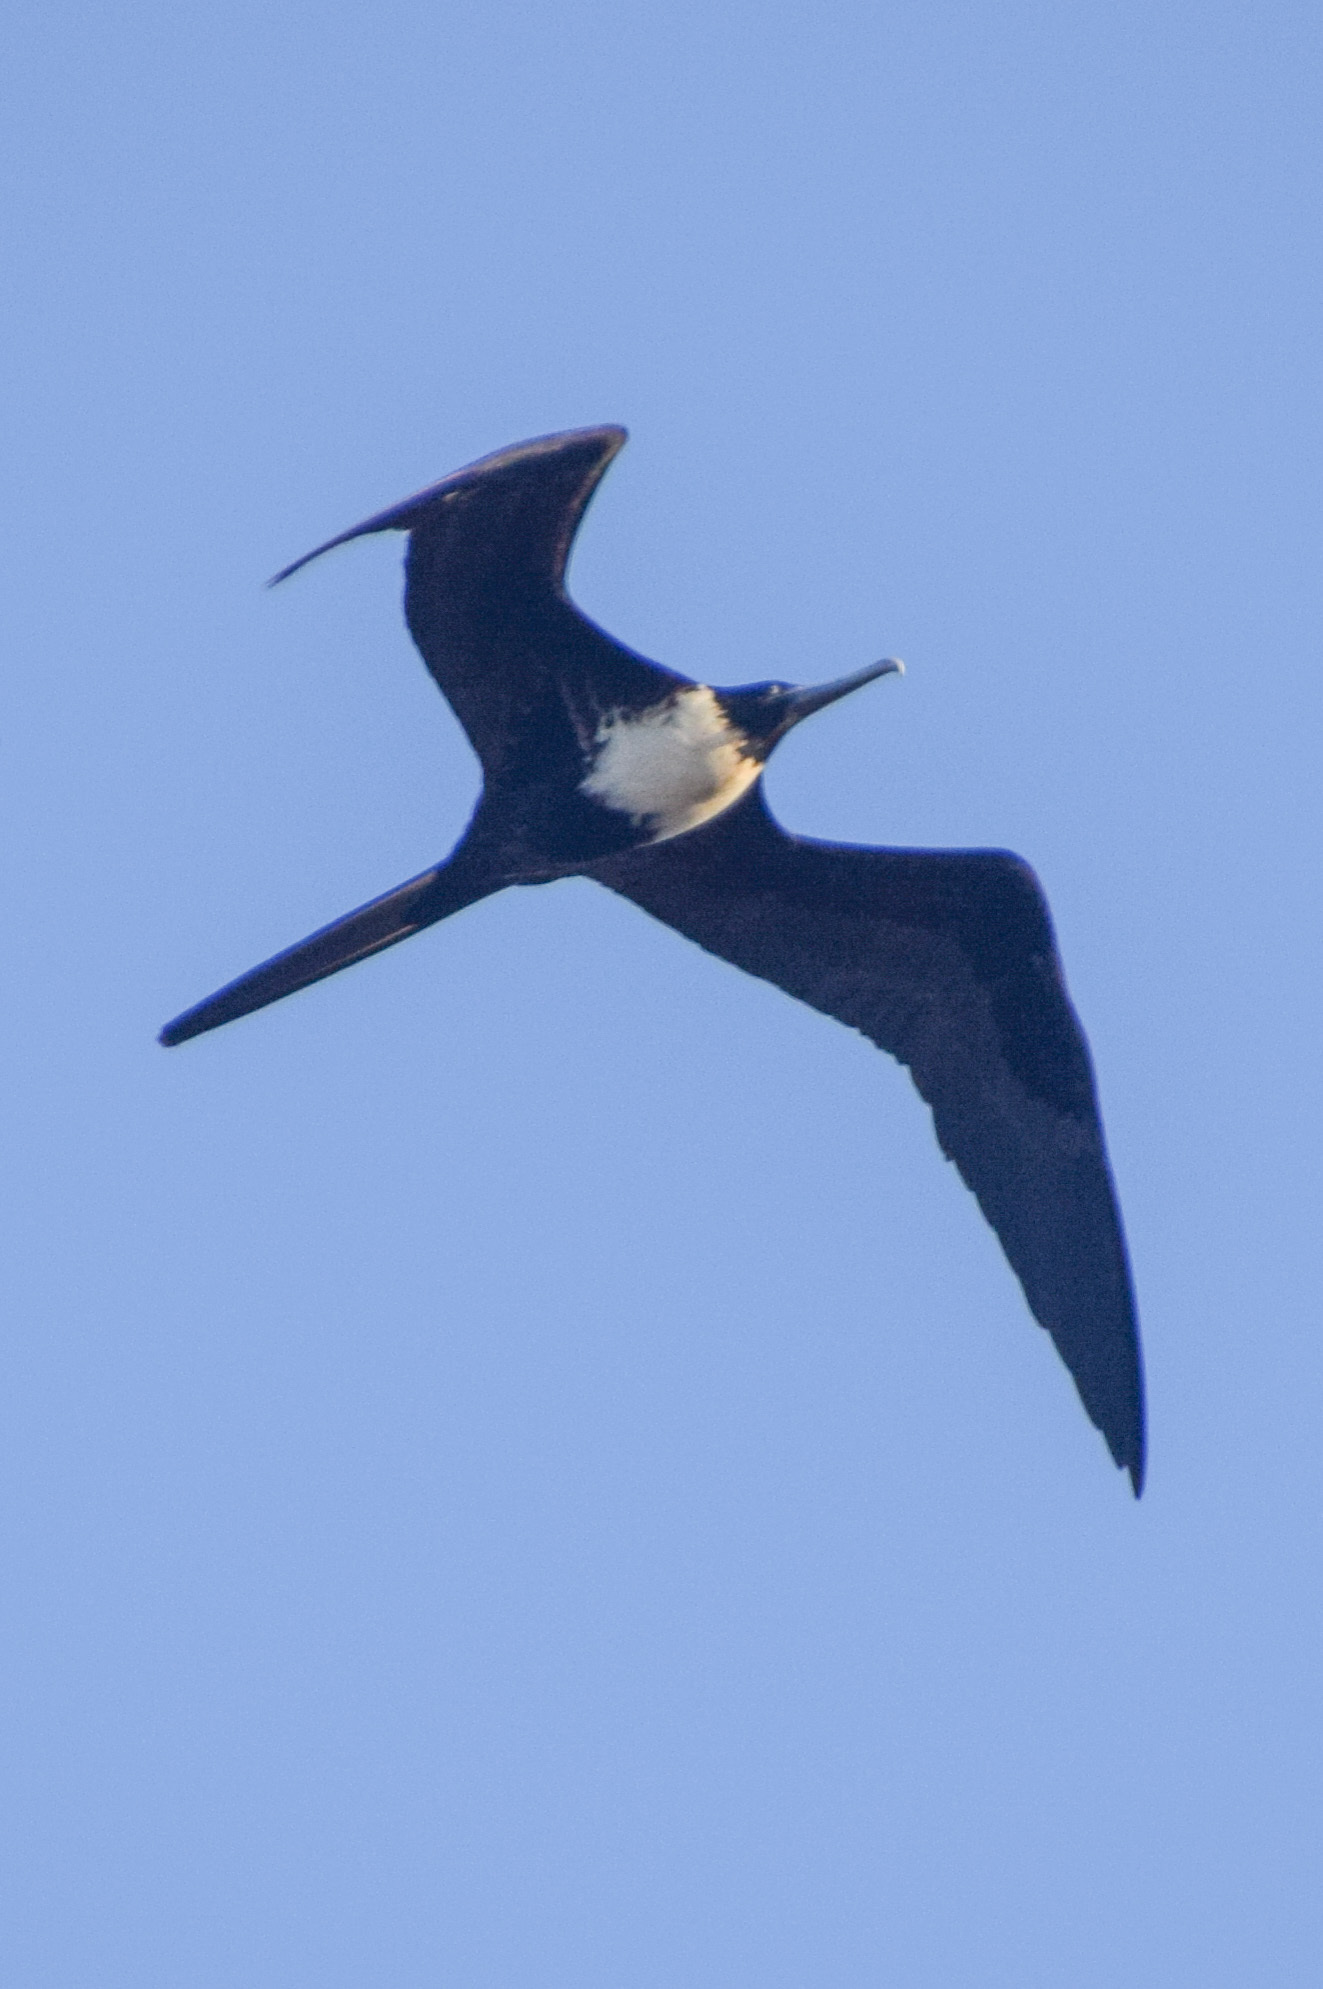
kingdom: Animalia
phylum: Chordata
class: Aves
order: Suliformes
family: Fregatidae
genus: Fregata
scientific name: Fregata magnificens
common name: Magnificent frigatebird
